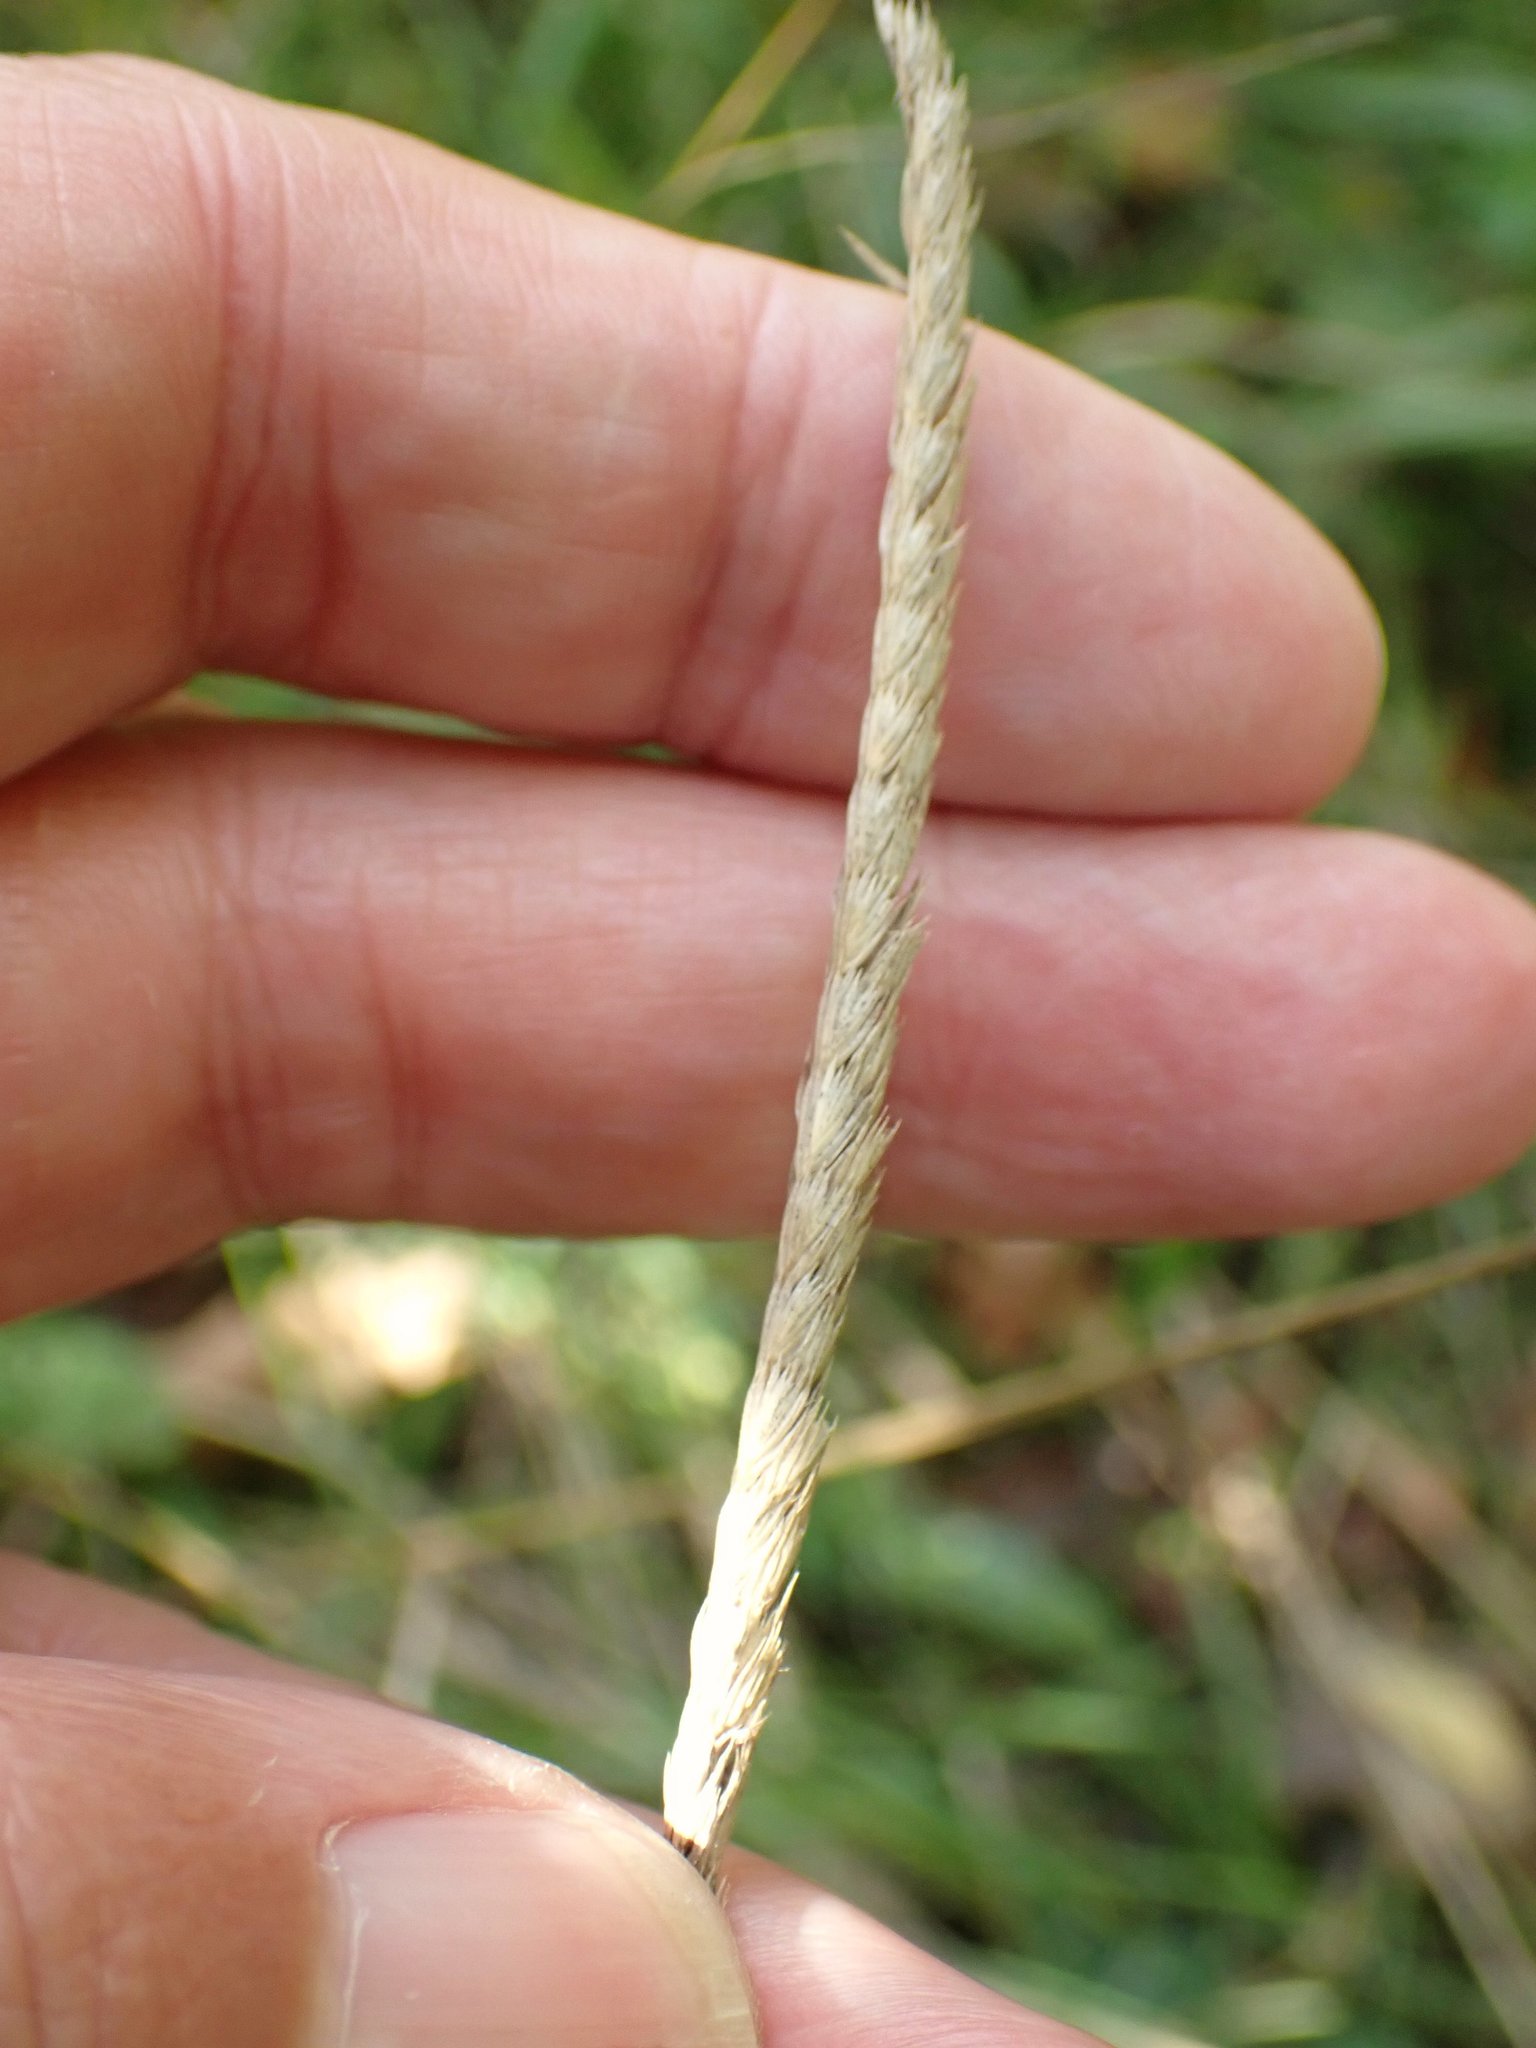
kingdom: Plantae
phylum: Tracheophyta
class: Liliopsida
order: Poales
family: Poaceae
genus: Cynosurus
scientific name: Cynosurus cristatus
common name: Crested dog's-tail
